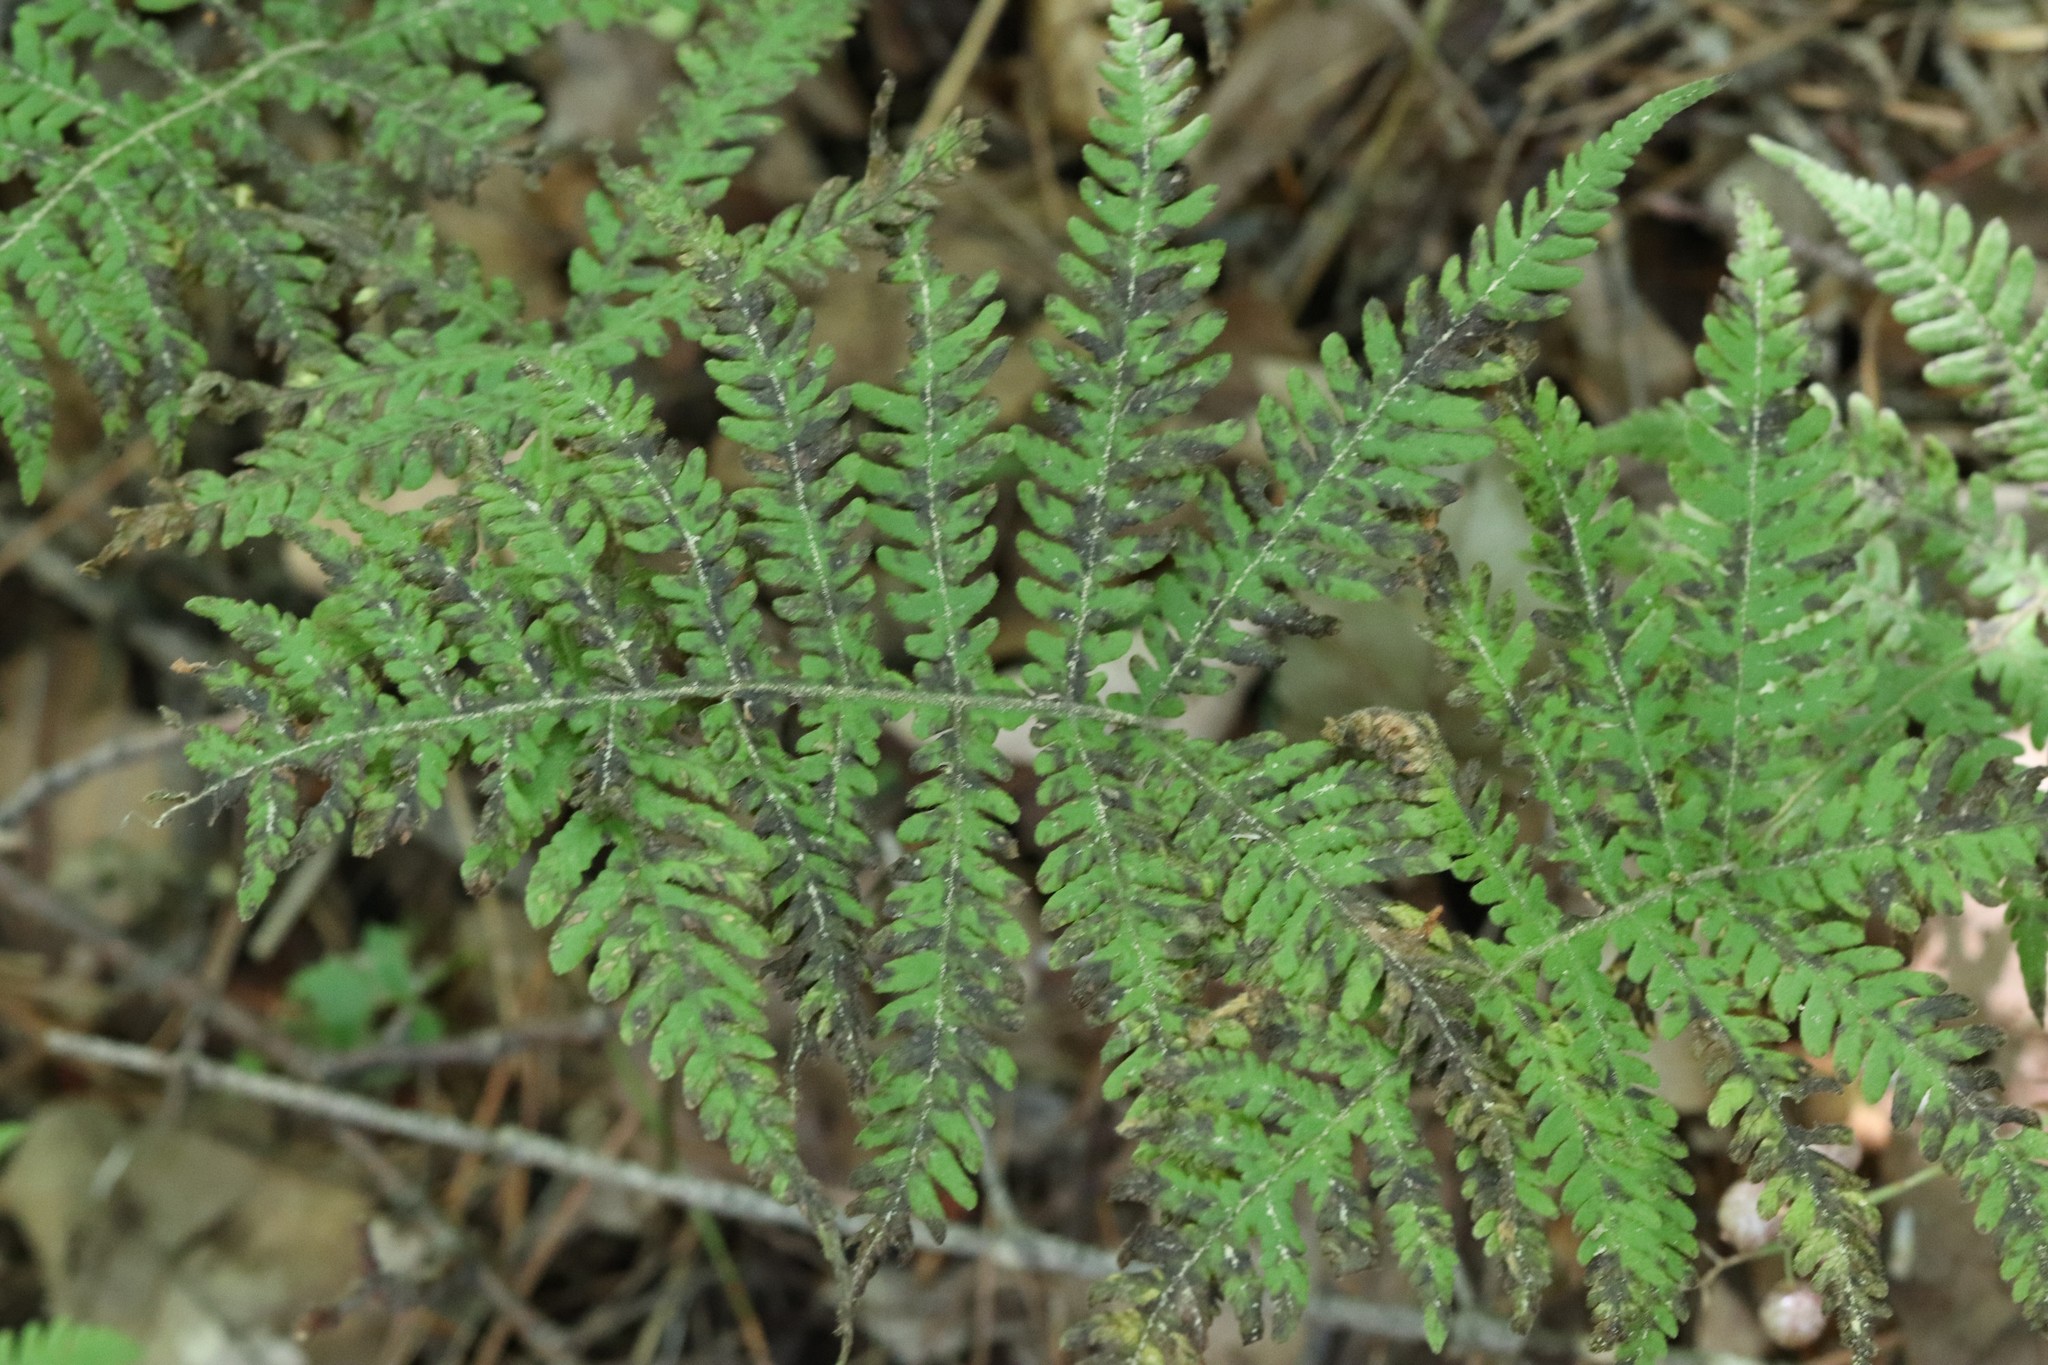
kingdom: Plantae
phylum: Tracheophyta
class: Polypodiopsida
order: Polypodiales
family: Thelypteridaceae
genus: Phegopteris
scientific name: Phegopteris connectilis
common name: Beech fern
